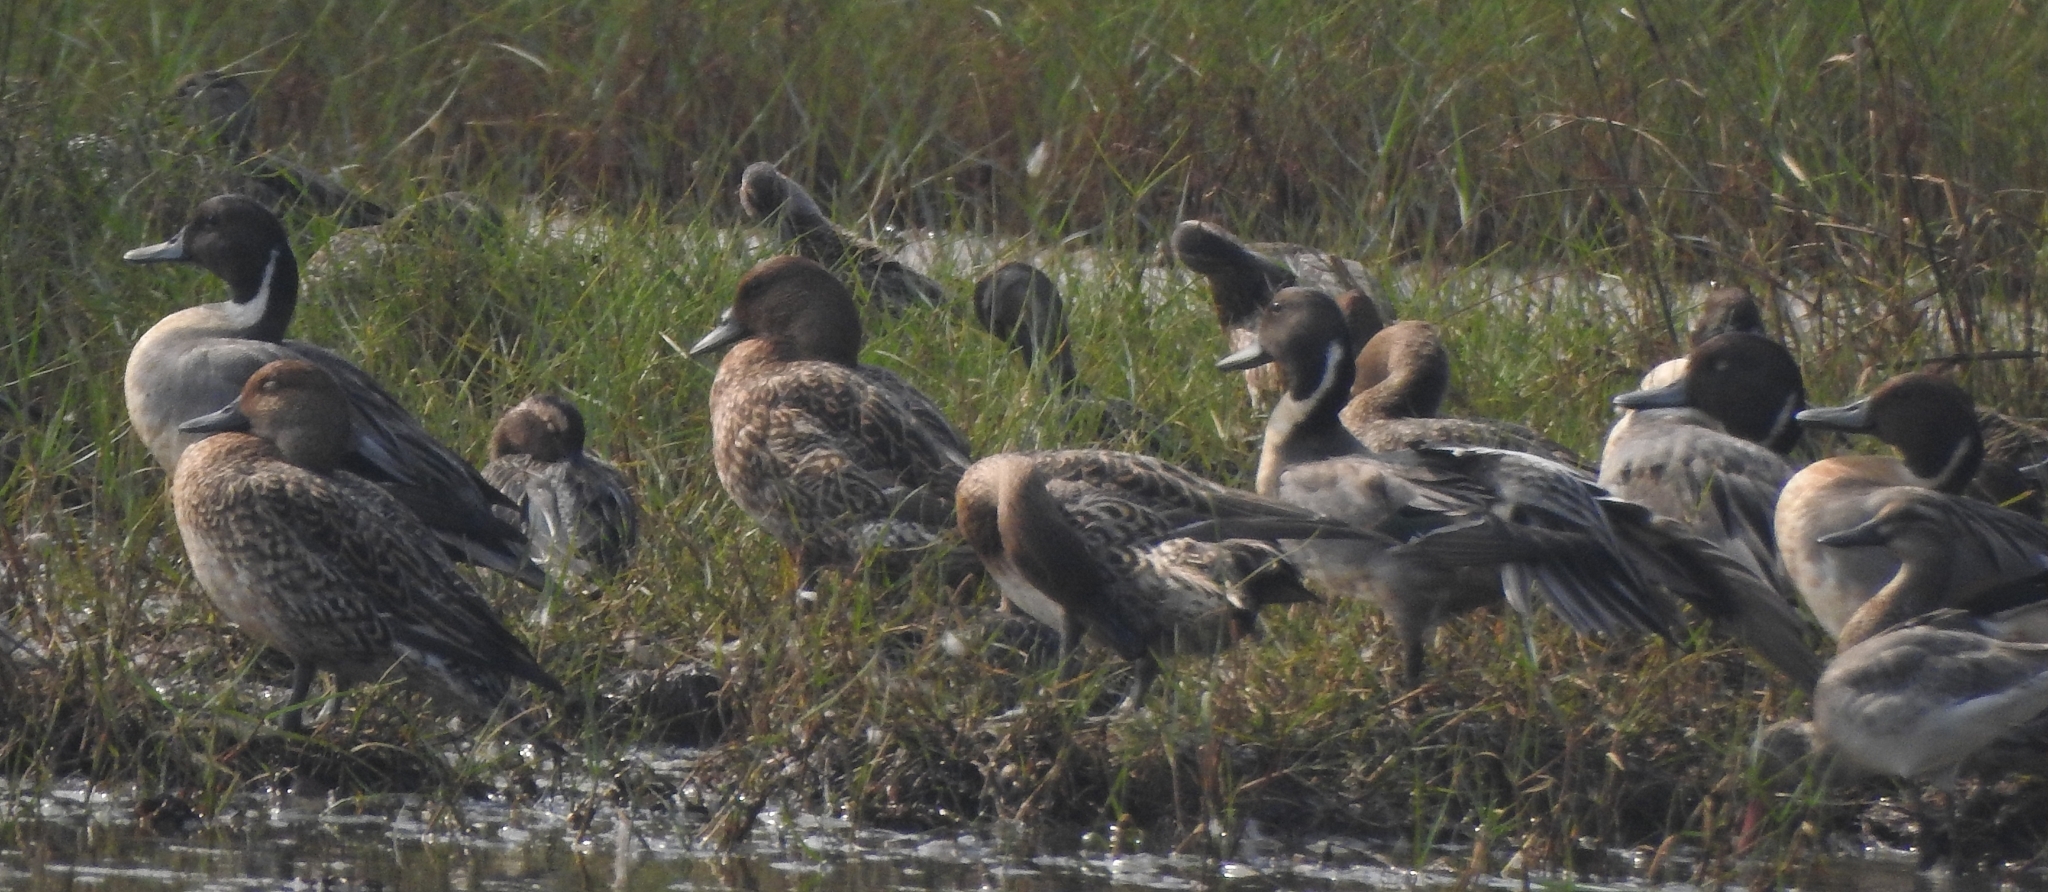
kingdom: Animalia
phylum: Chordata
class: Aves
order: Anseriformes
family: Anatidae
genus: Anas
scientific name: Anas acuta
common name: Northern pintail
